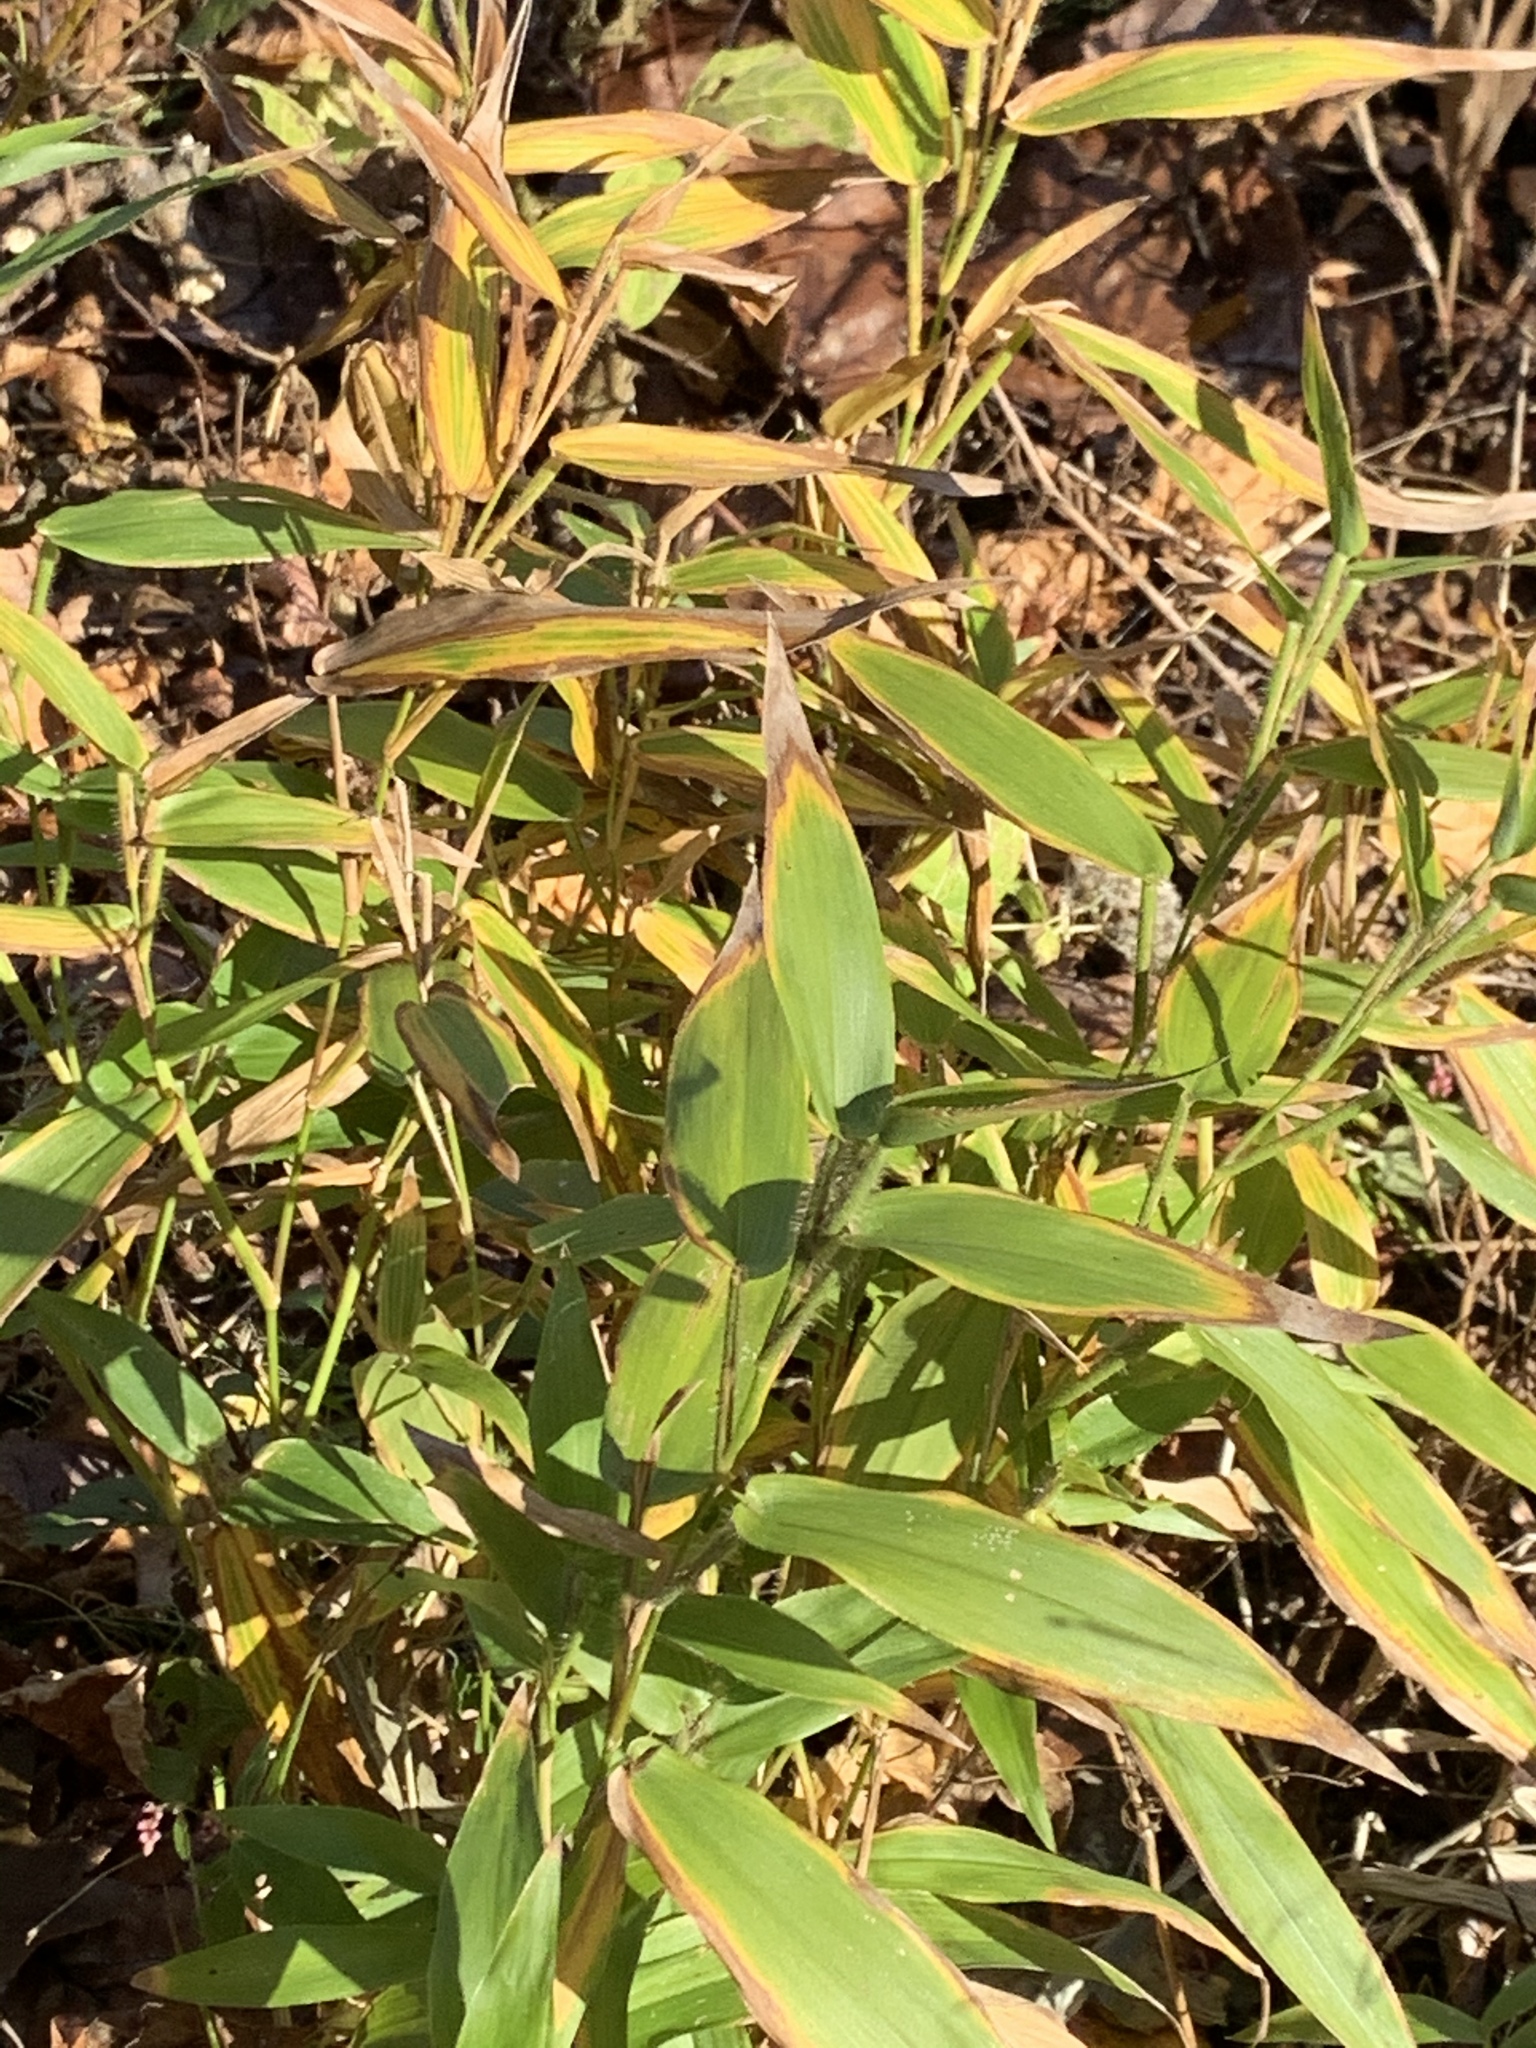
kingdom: Plantae
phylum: Tracheophyta
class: Liliopsida
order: Poales
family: Poaceae
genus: Dichanthelium
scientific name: Dichanthelium clandestinum
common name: Deer-tongue grass
